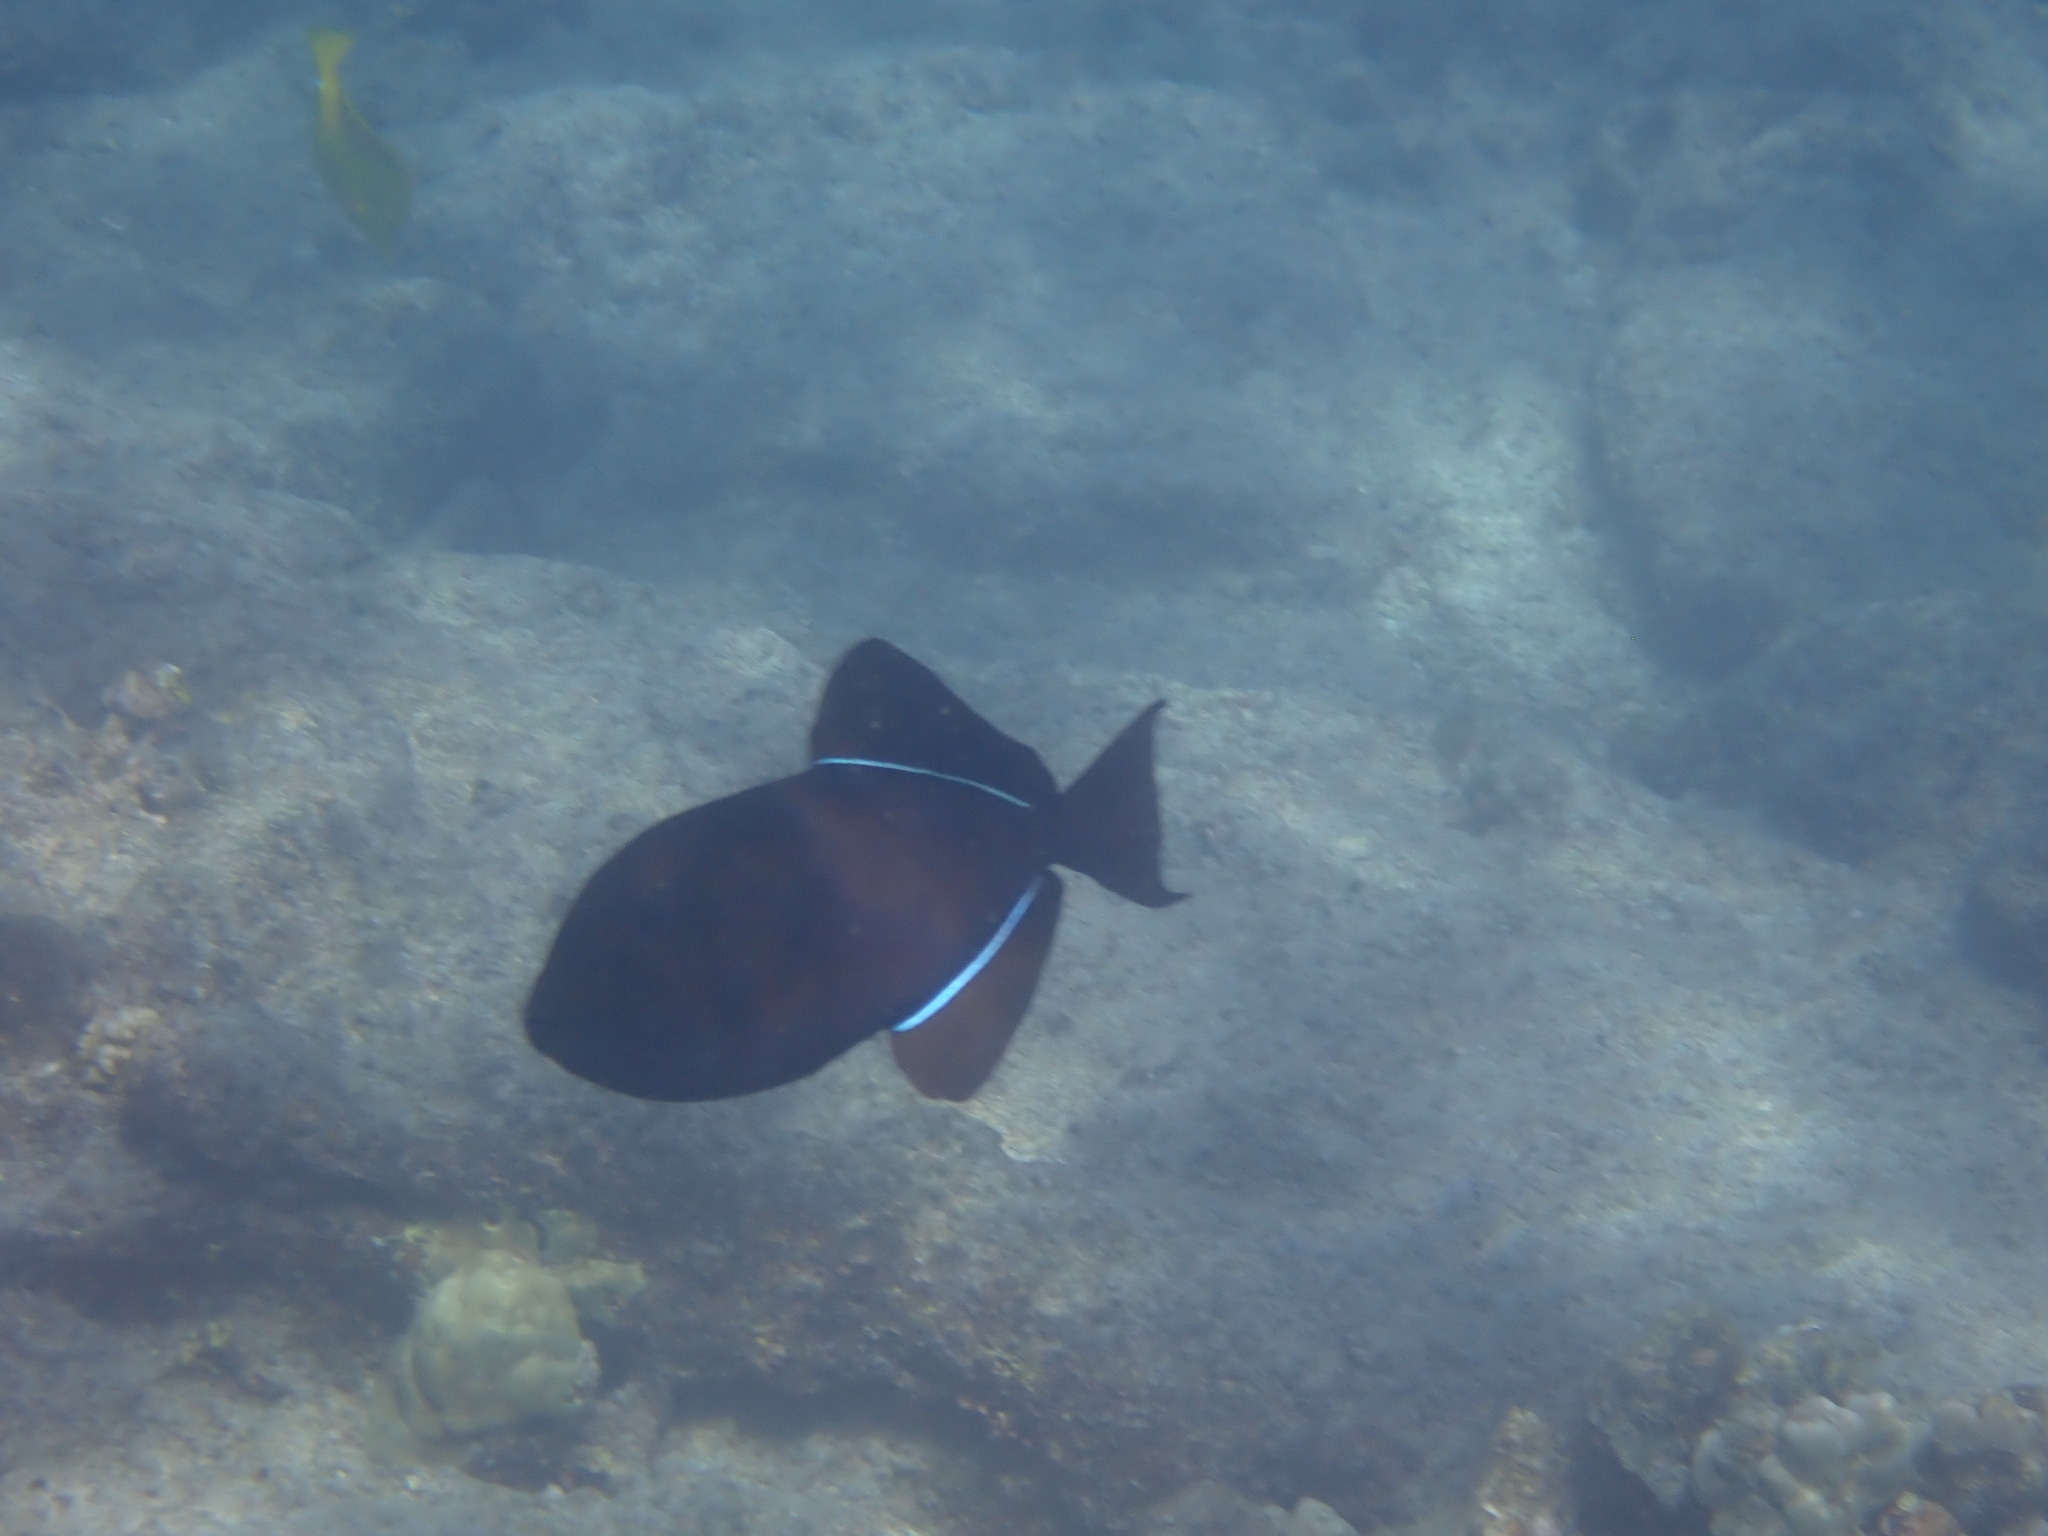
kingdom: Animalia
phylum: Chordata
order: Tetraodontiformes
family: Balistidae
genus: Melichthys
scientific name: Melichthys niger
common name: Black durgon
